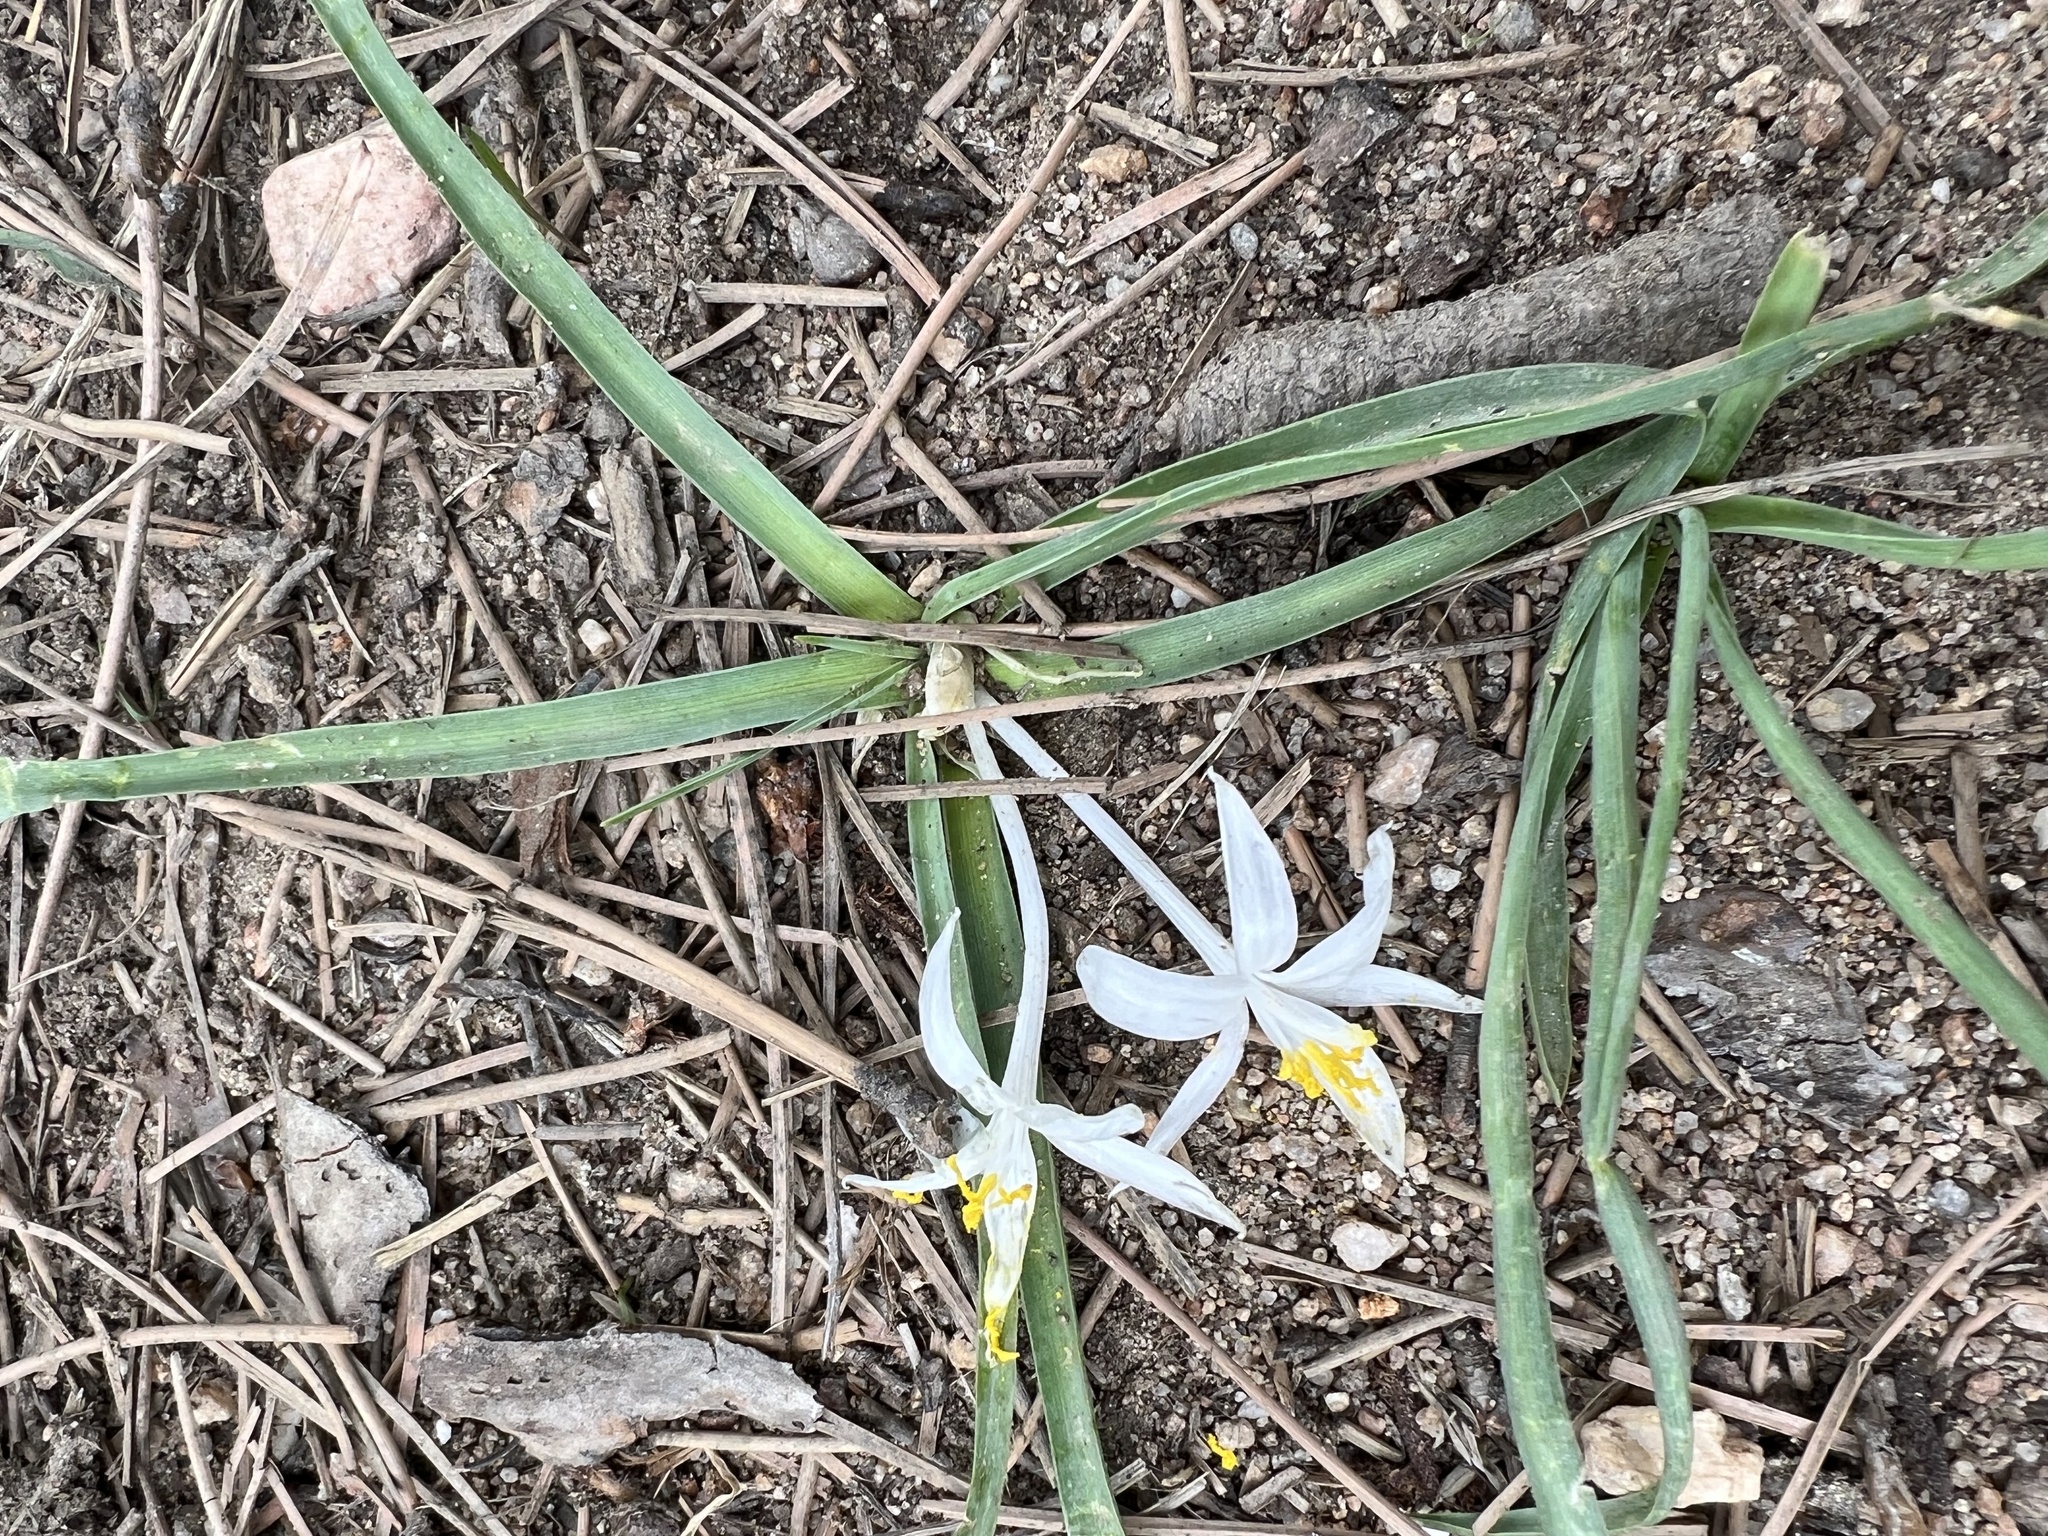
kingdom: Plantae
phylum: Tracheophyta
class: Liliopsida
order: Asparagales
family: Asparagaceae
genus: Leucocrinum
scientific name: Leucocrinum montanum
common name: Mountain-lily
